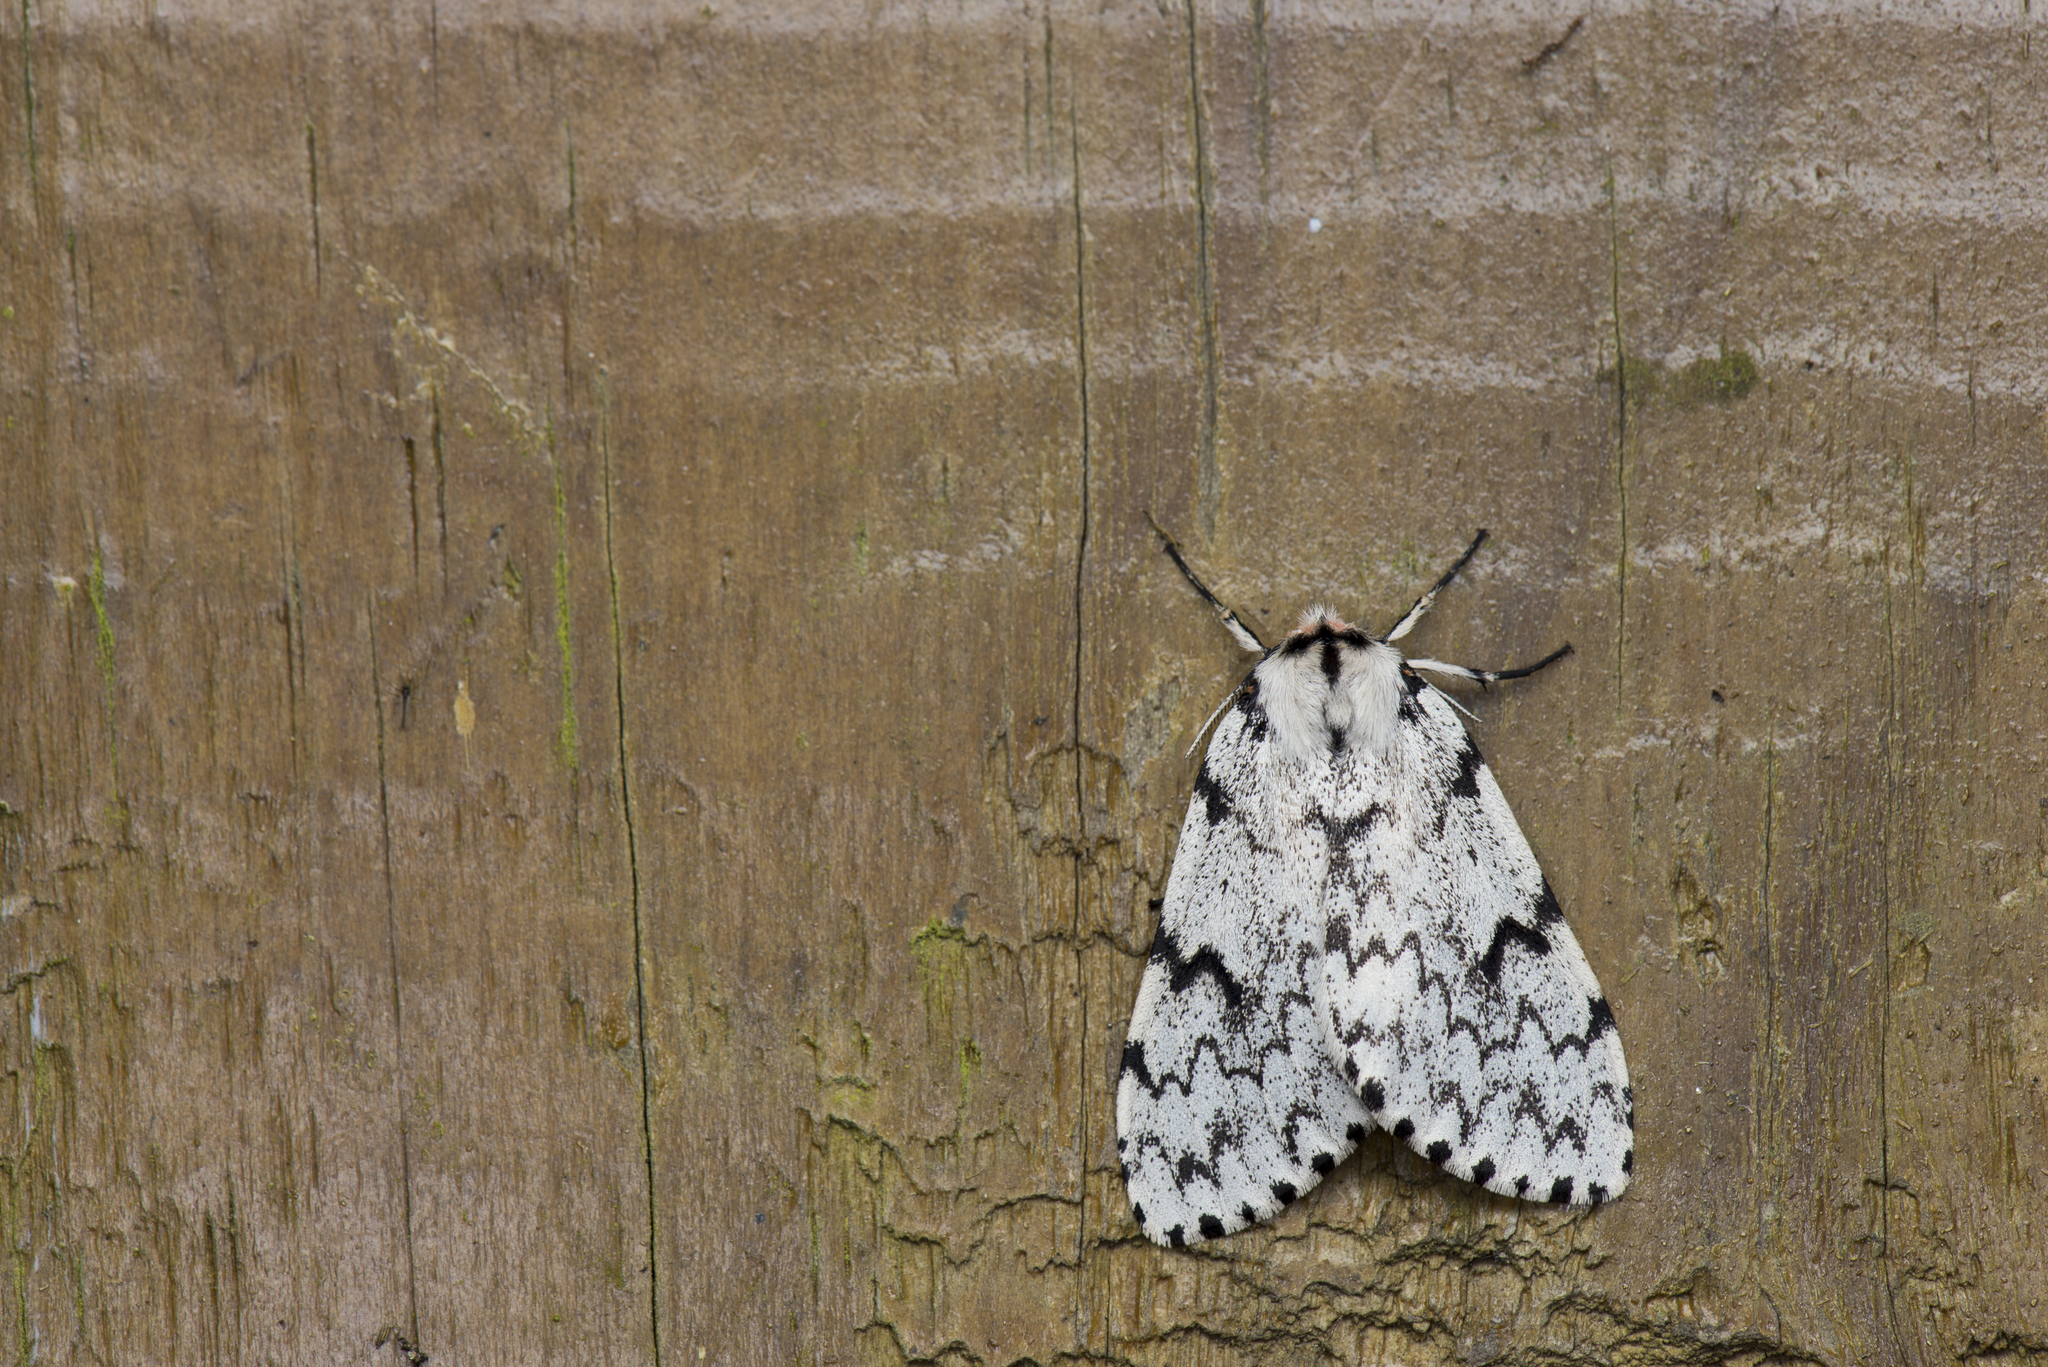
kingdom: Animalia
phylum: Arthropoda
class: Insecta
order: Lepidoptera
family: Erebidae
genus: Lymantria
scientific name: Lymantria pulverea
